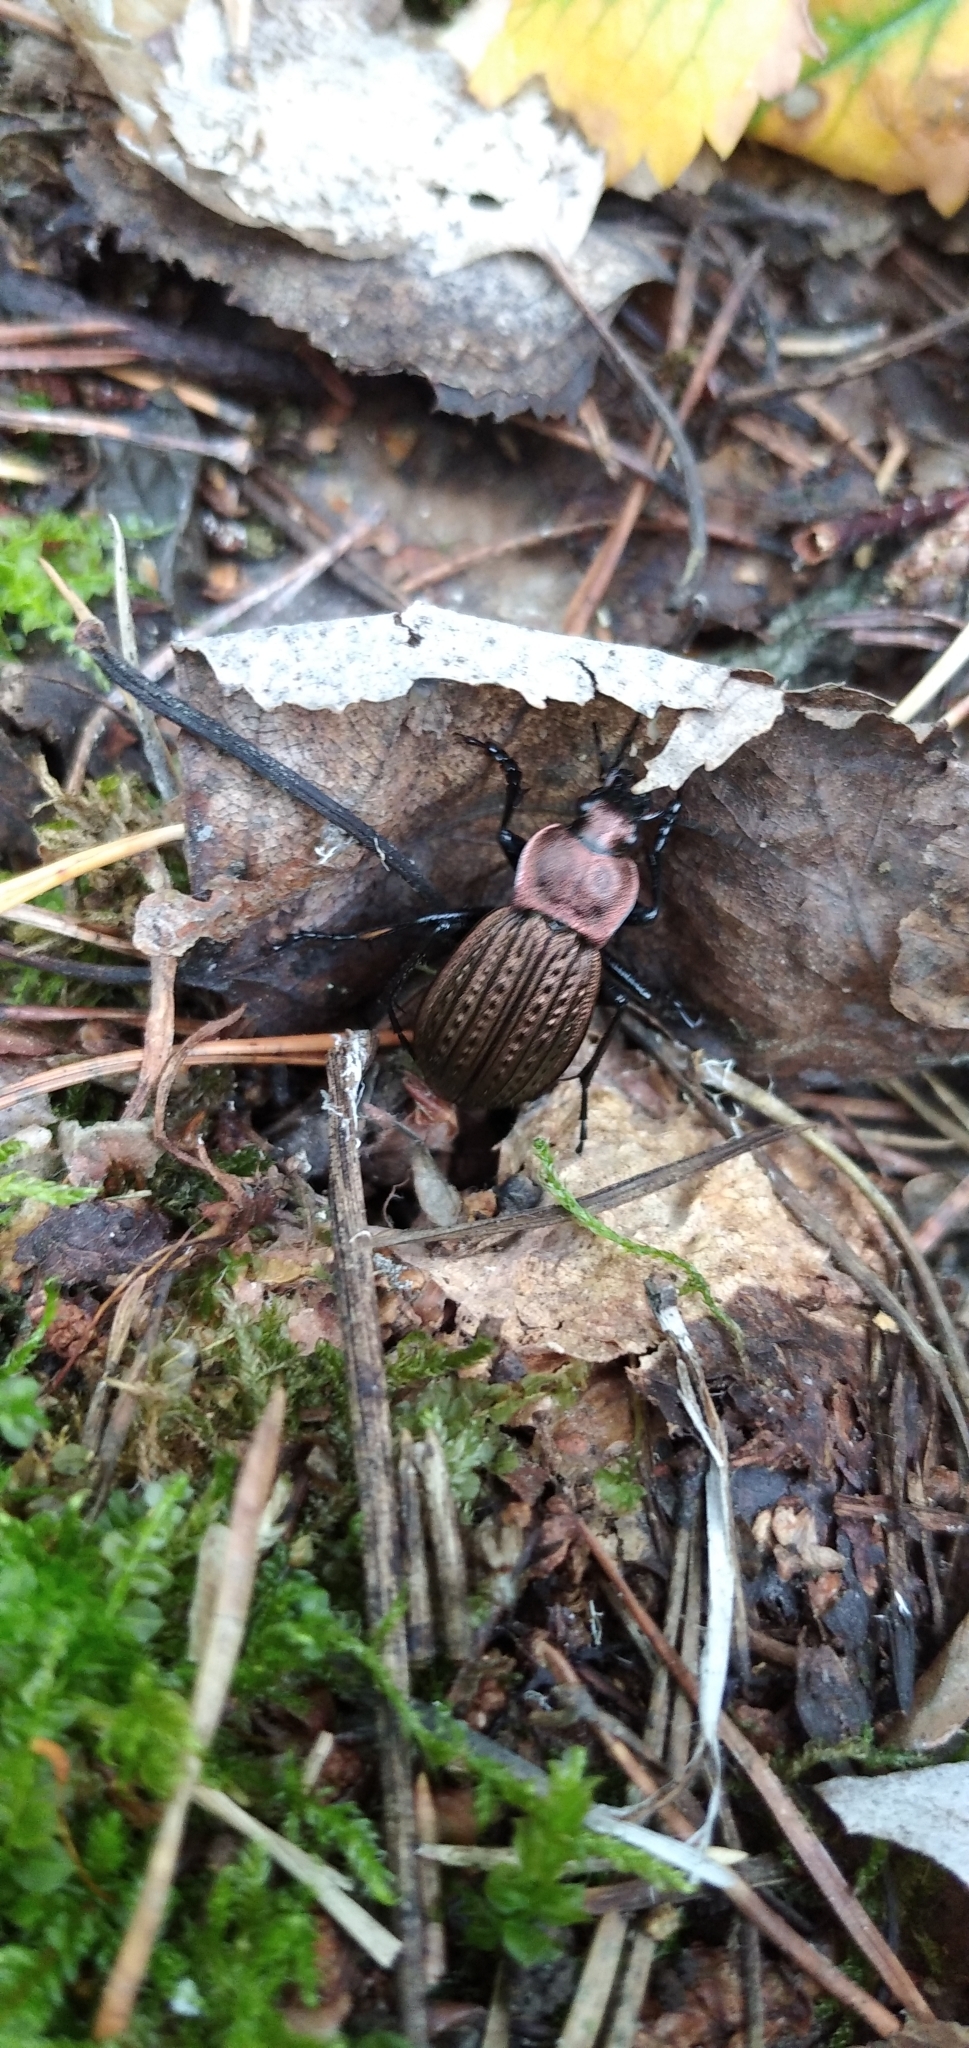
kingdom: Animalia
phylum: Arthropoda
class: Insecta
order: Coleoptera
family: Carabidae
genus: Carabus
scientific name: Carabus cancellatus
